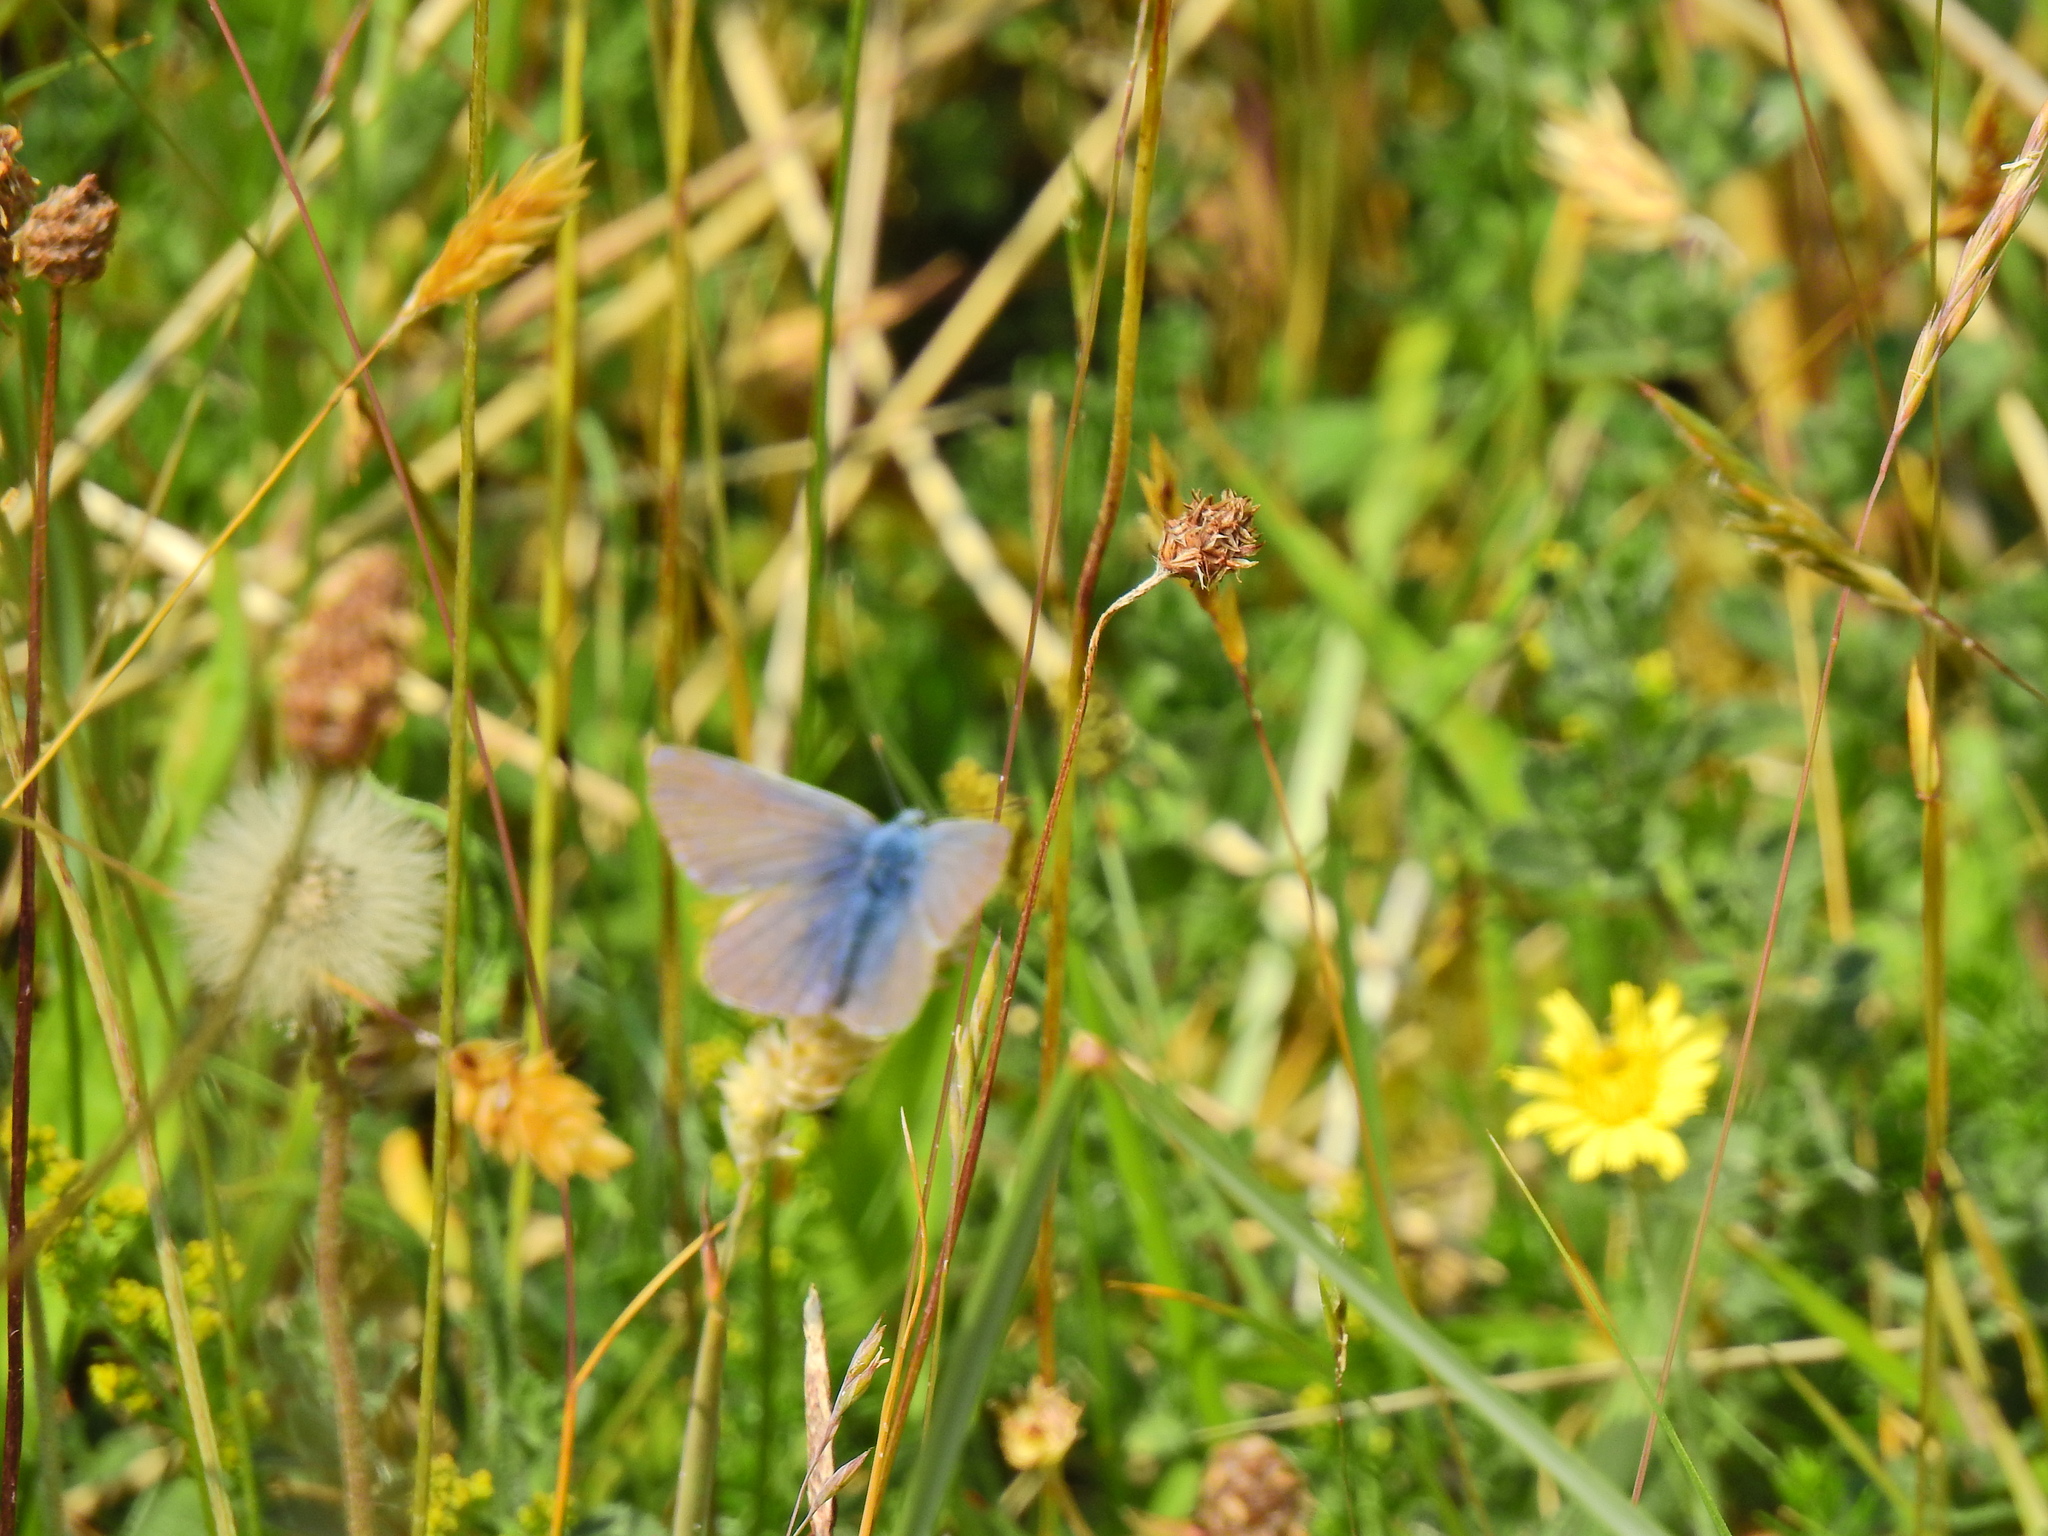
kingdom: Animalia
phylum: Arthropoda
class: Insecta
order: Lepidoptera
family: Lycaenidae
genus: Polyommatus
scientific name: Polyommatus icarus
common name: Common blue
